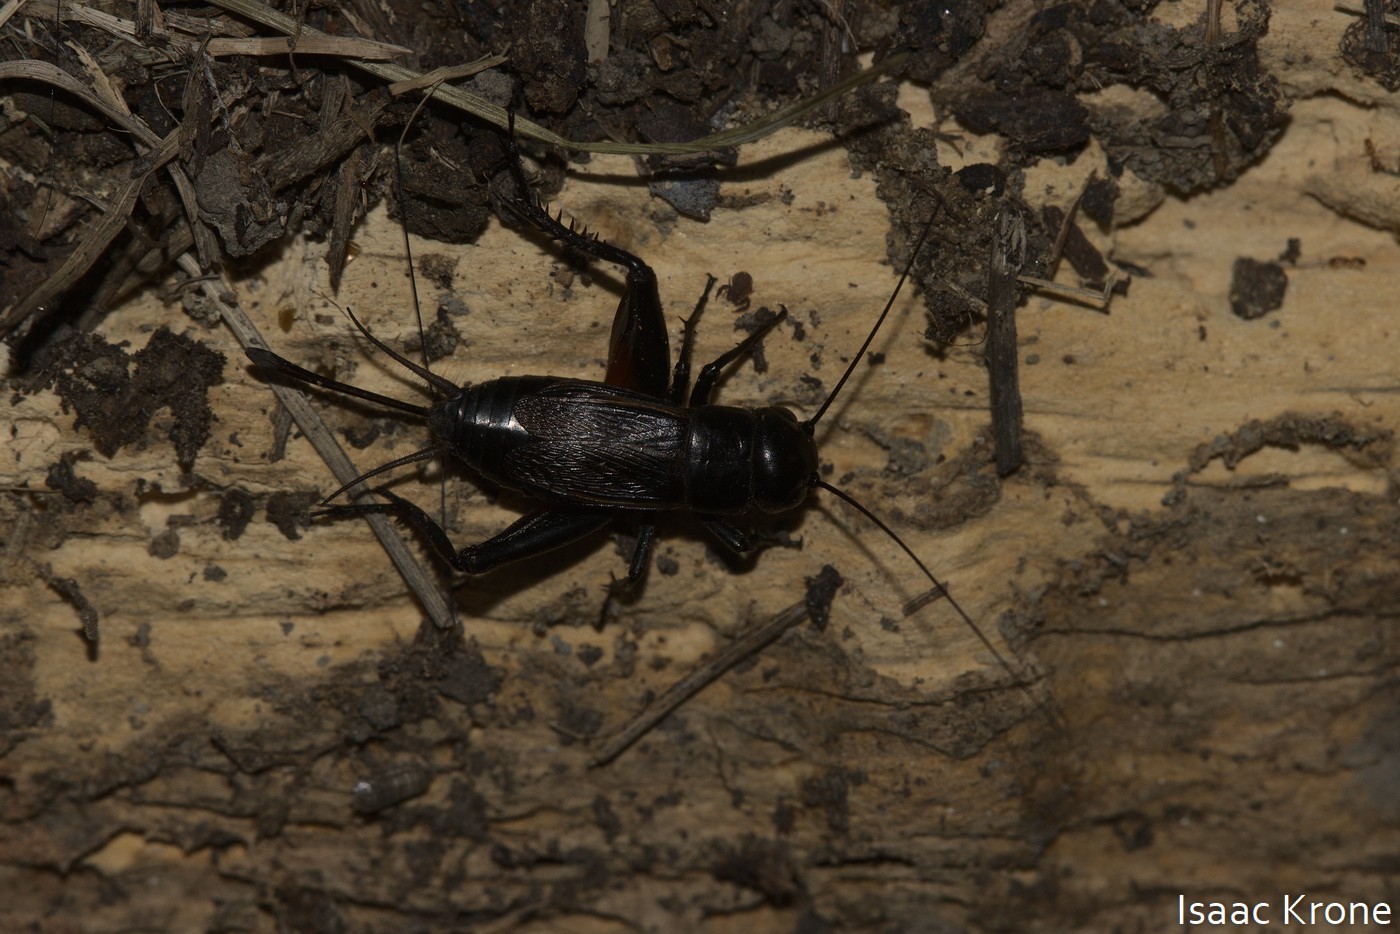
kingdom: Animalia
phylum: Arthropoda
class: Insecta
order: Orthoptera
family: Gryllidae
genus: Gryllus
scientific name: Gryllus veletis
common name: Spring field cricket
